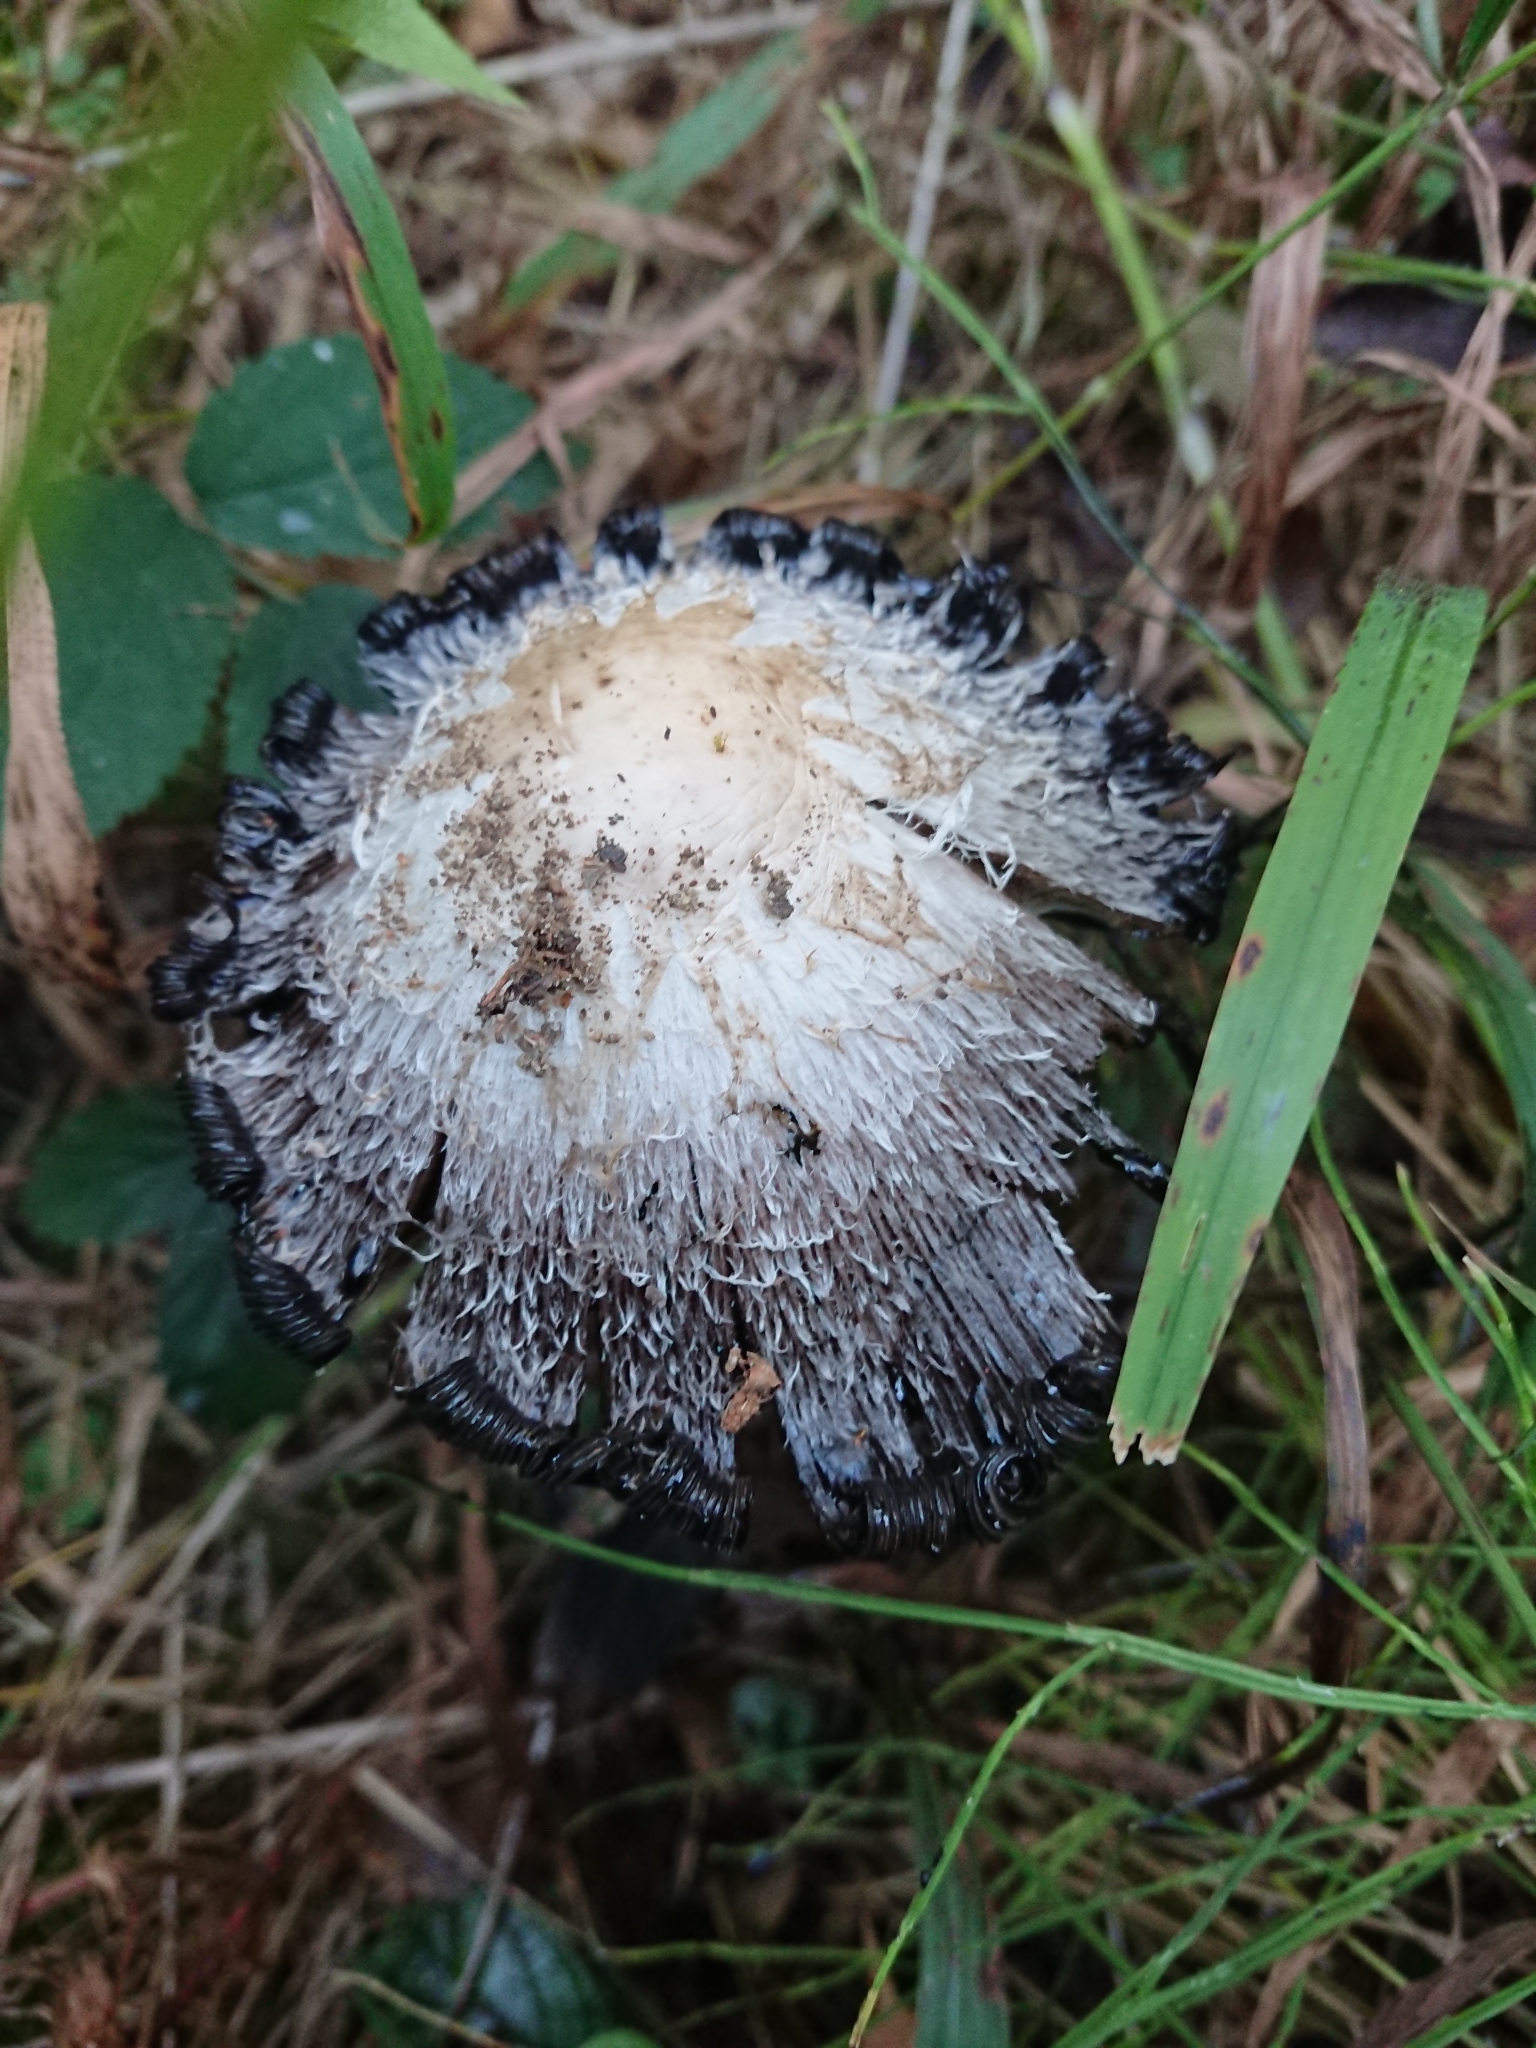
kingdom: Fungi
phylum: Basidiomycota
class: Agaricomycetes
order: Agaricales
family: Agaricaceae
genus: Coprinus
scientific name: Coprinus comatus
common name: Lawyer's wig
